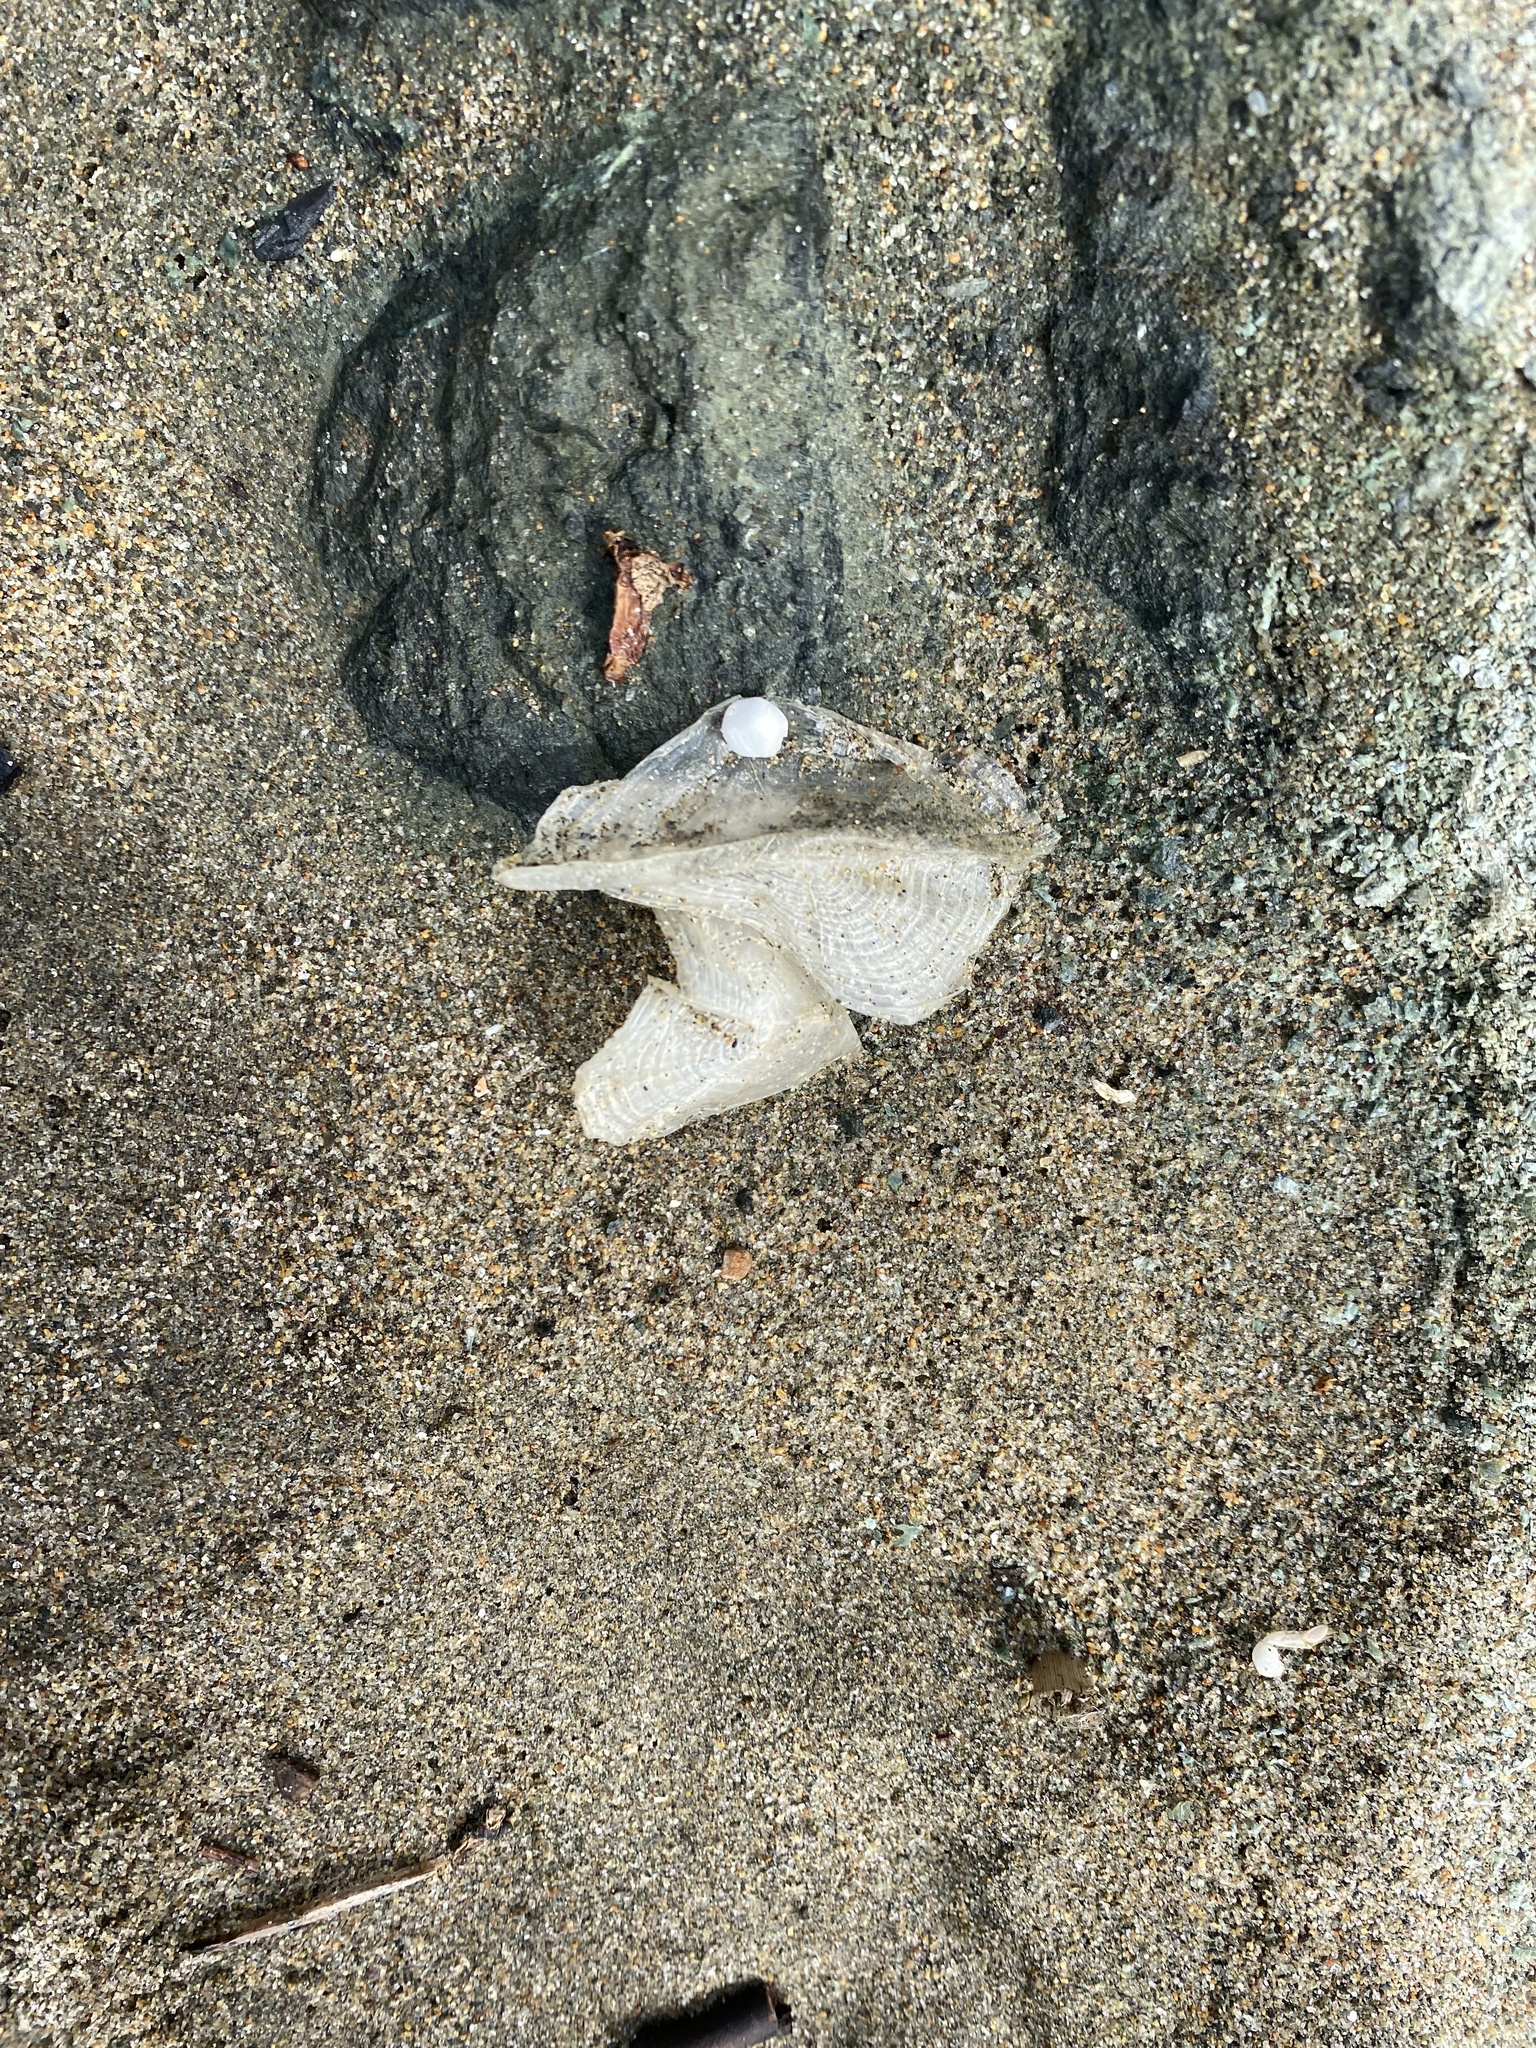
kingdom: Animalia
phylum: Cnidaria
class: Hydrozoa
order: Anthoathecata
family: Porpitidae
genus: Velella
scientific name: Velella velella
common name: By-the-wind-sailor
